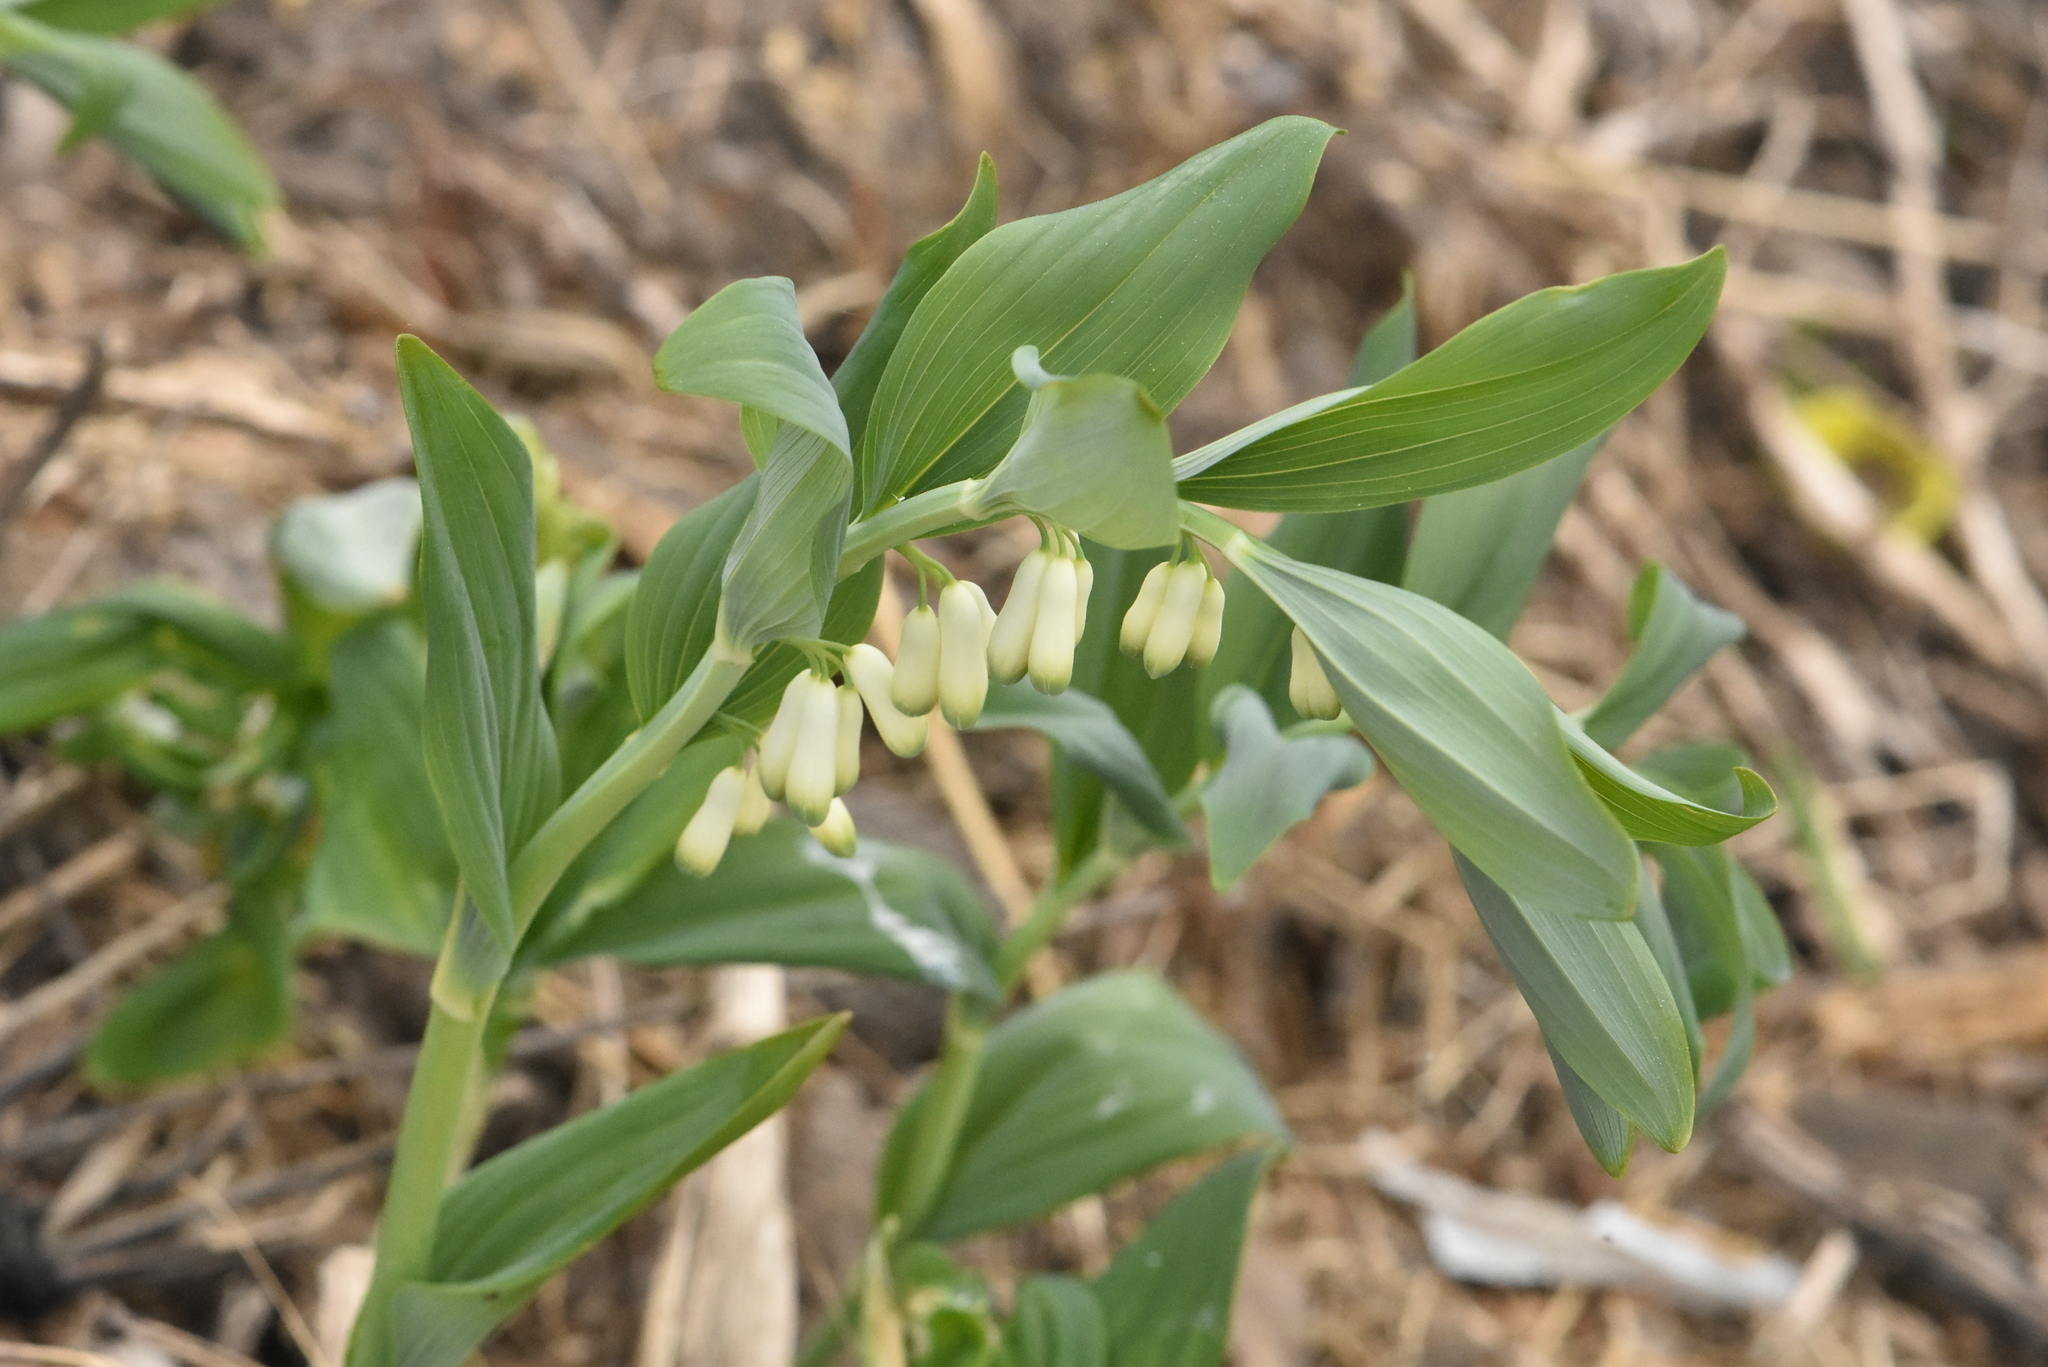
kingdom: Plantae
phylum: Tracheophyta
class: Liliopsida
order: Asparagales
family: Asparagaceae
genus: Polygonatum
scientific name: Polygonatum multiflorum
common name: Solomon's-seal
